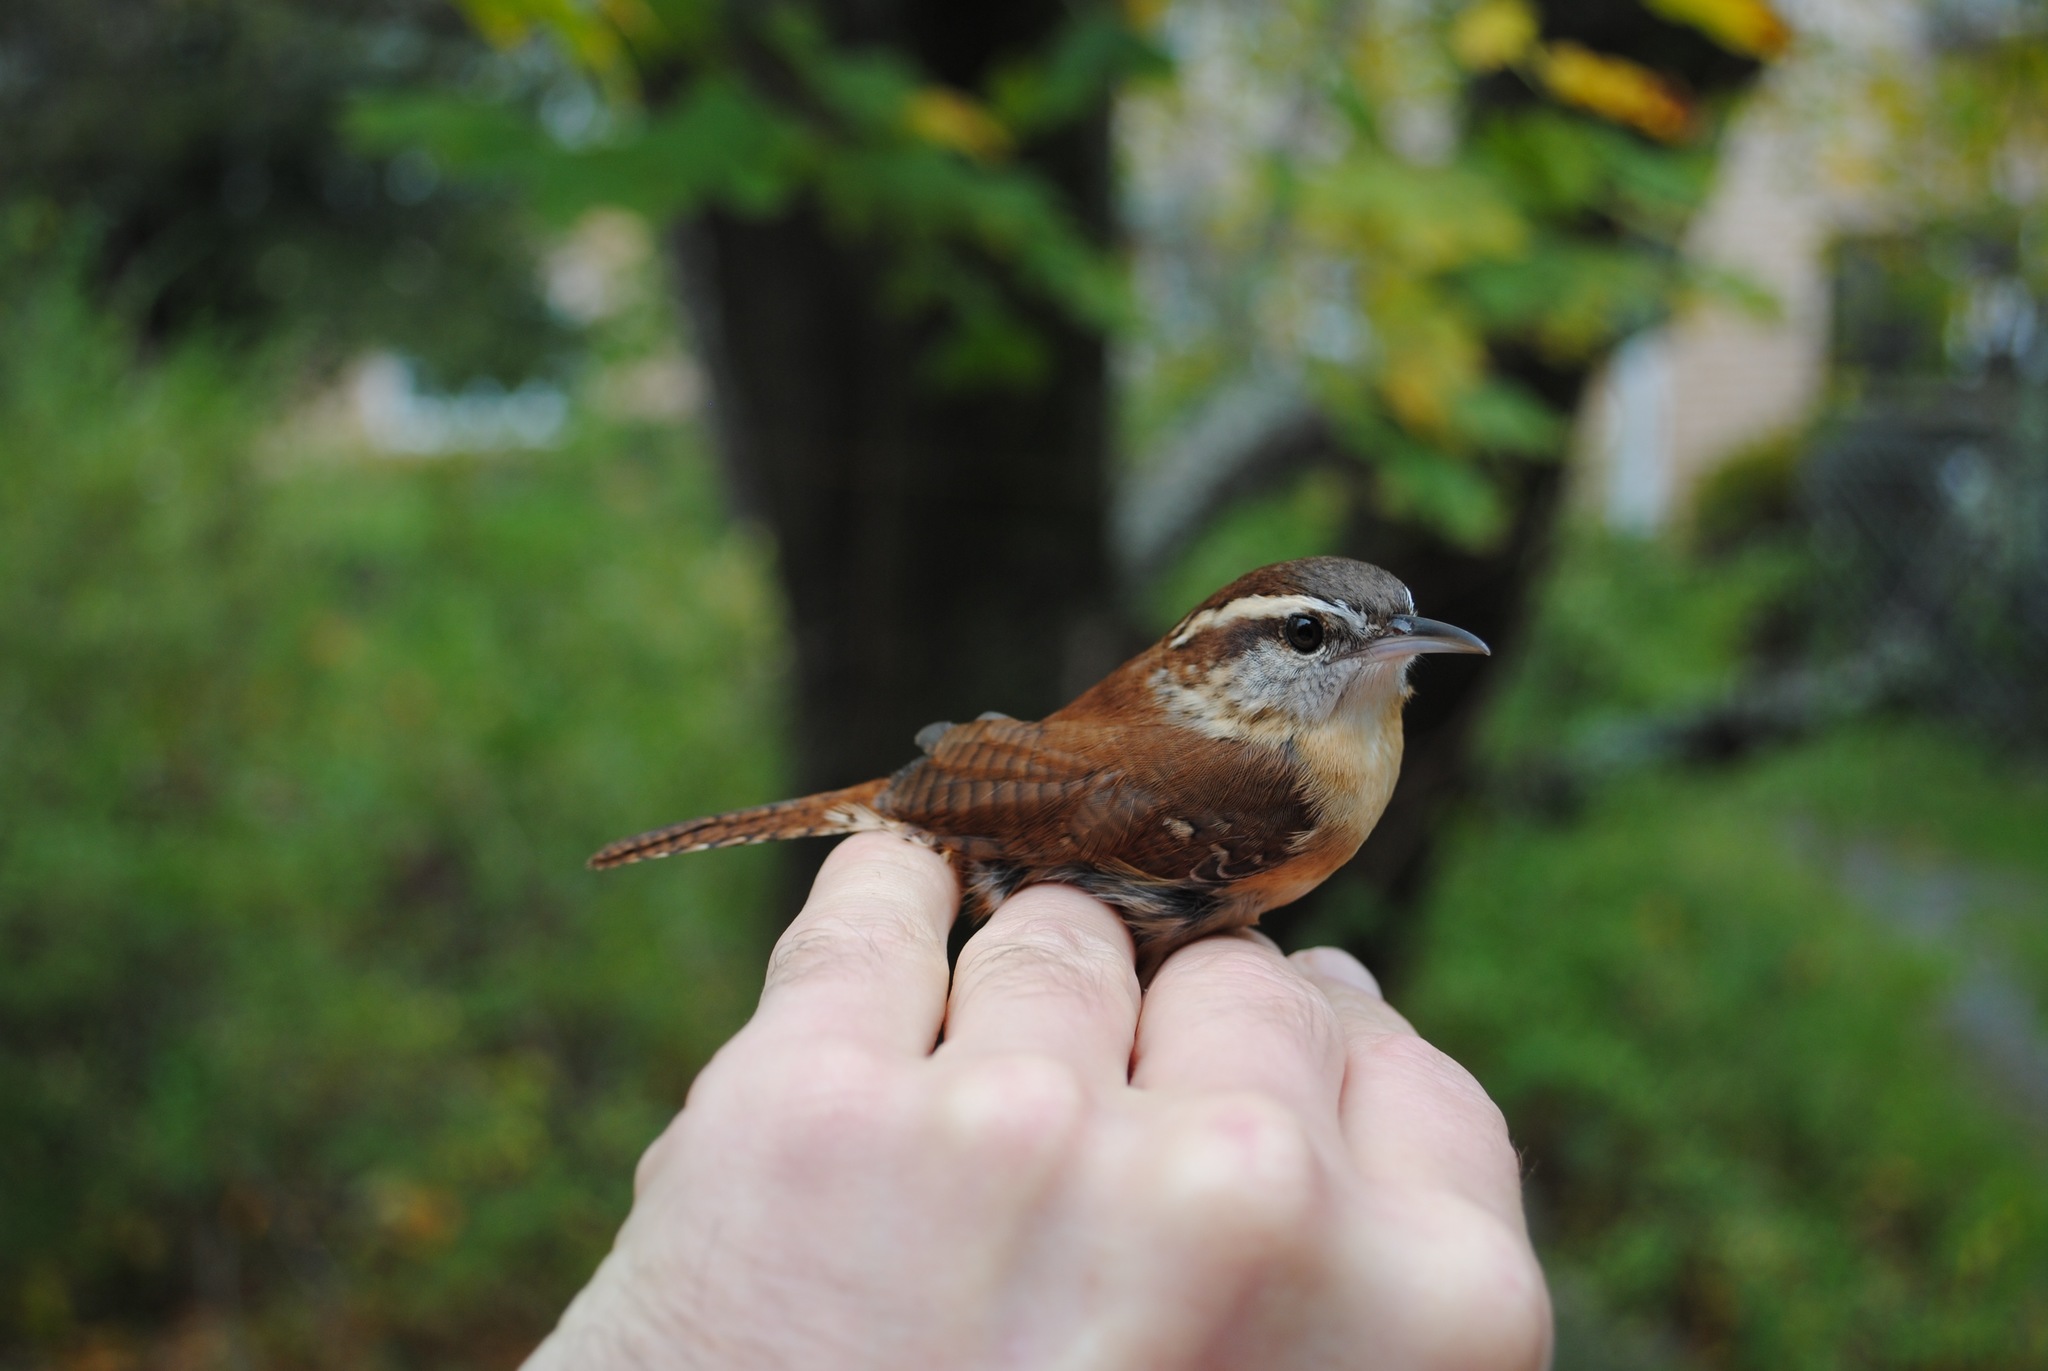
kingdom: Animalia
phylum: Chordata
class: Aves
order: Passeriformes
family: Troglodytidae
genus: Thryothorus
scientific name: Thryothorus ludovicianus
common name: Carolina wren
